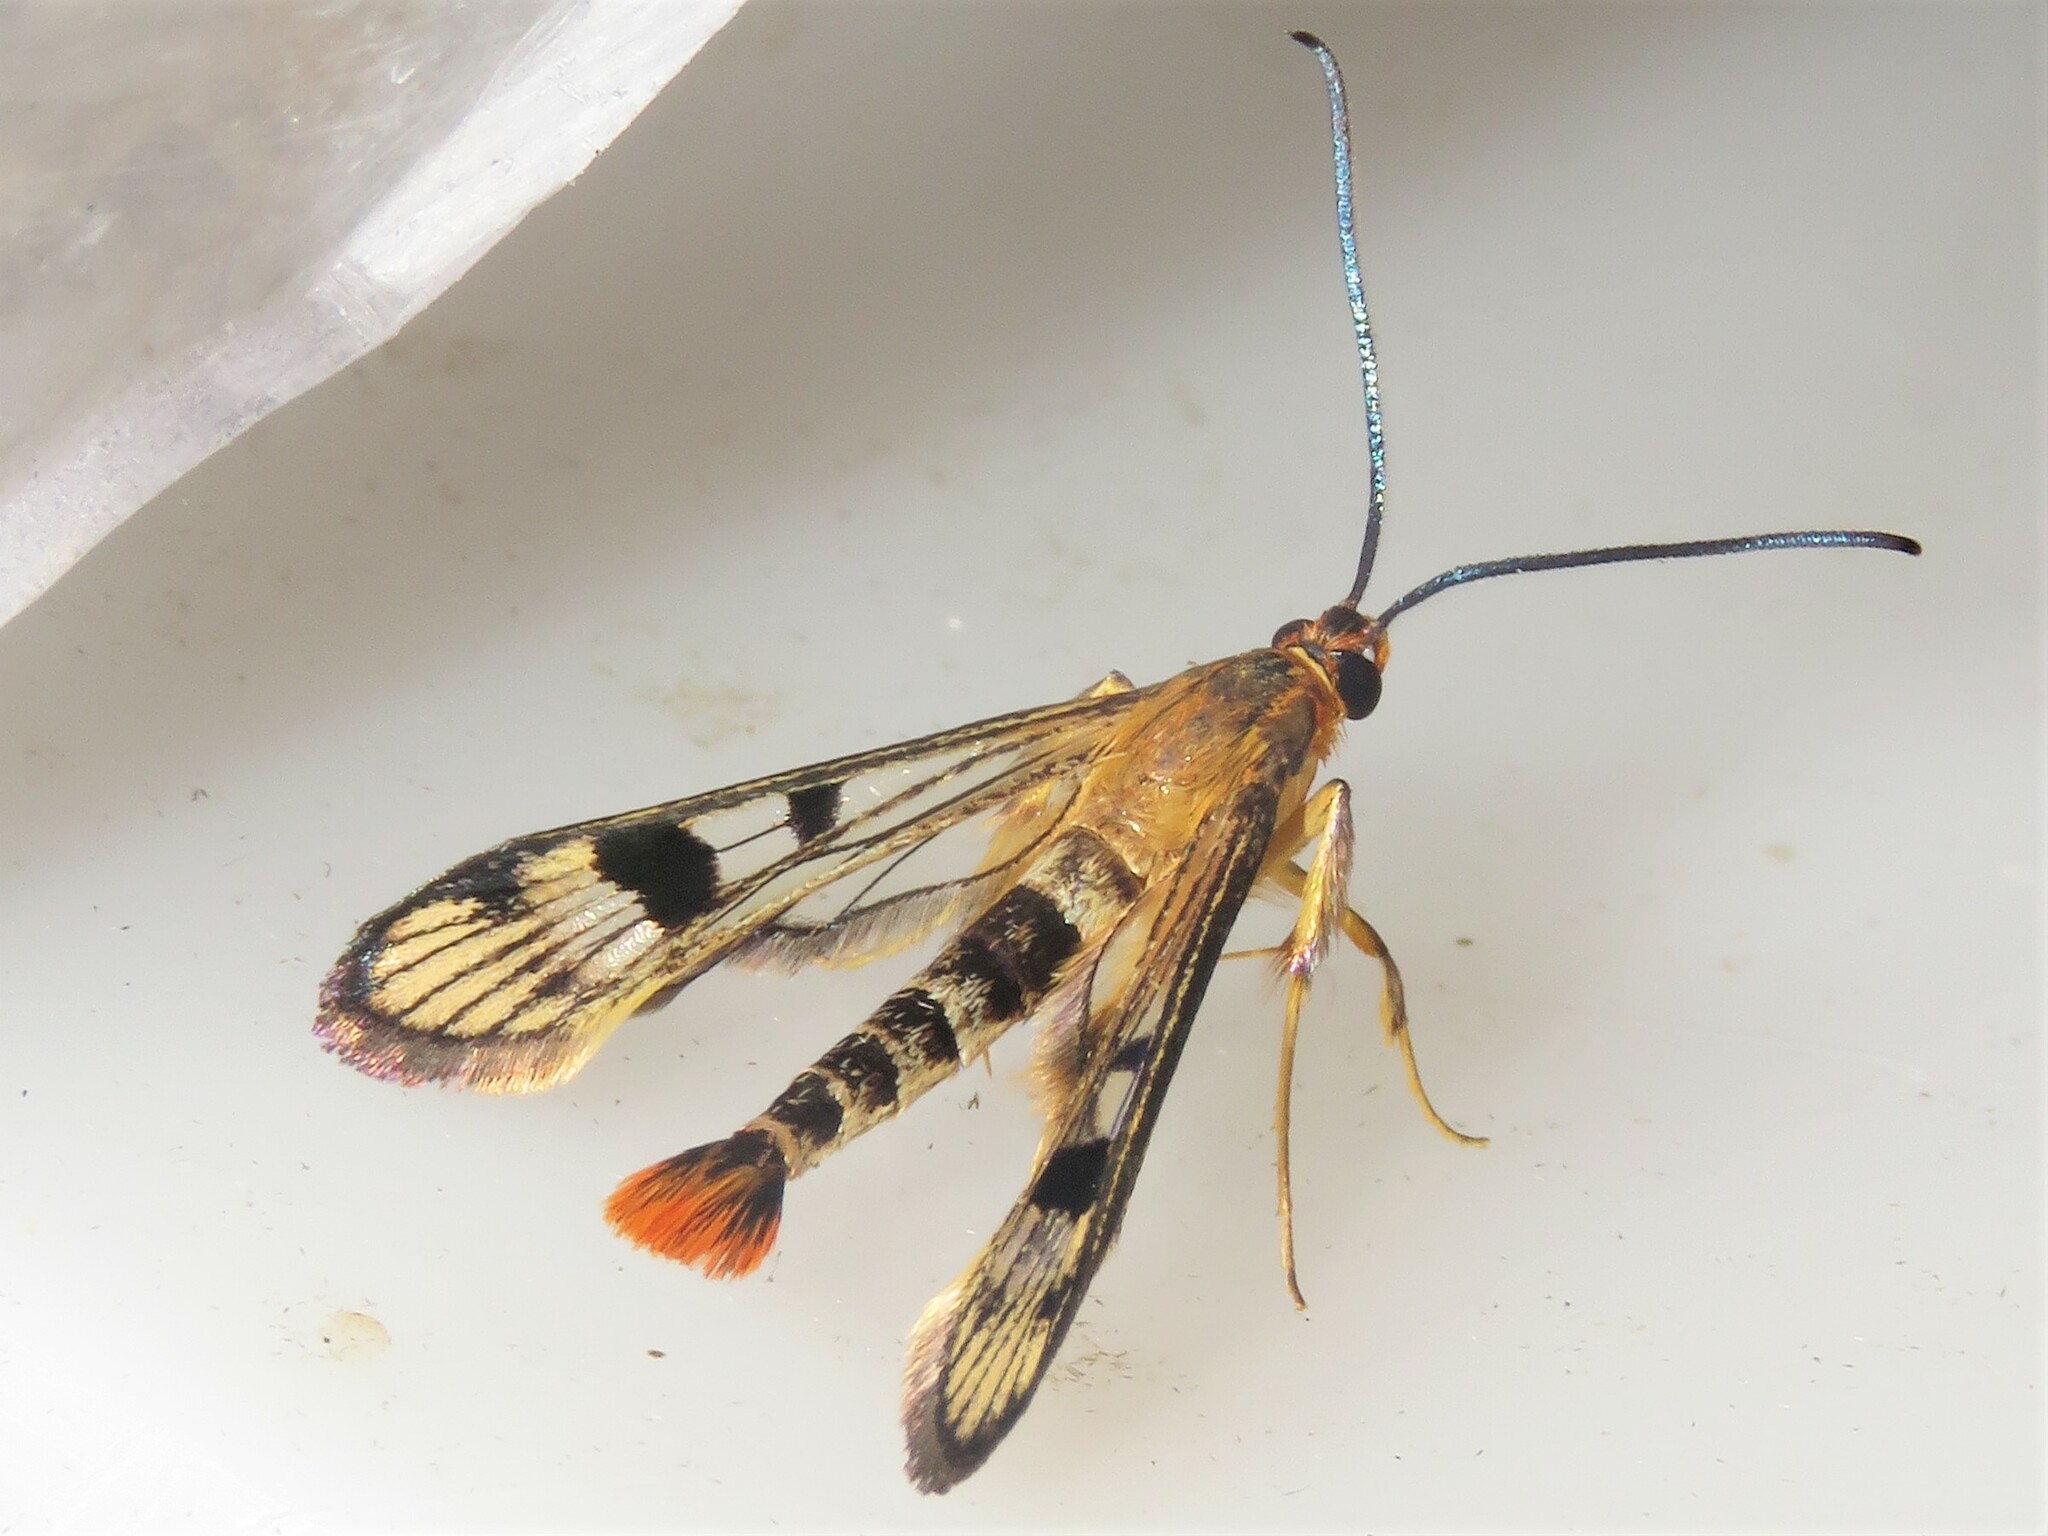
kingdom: Animalia
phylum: Arthropoda
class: Insecta
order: Lepidoptera
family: Sesiidae
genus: Synanthedon
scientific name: Synanthedon acerni
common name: Maple callus borer moth
